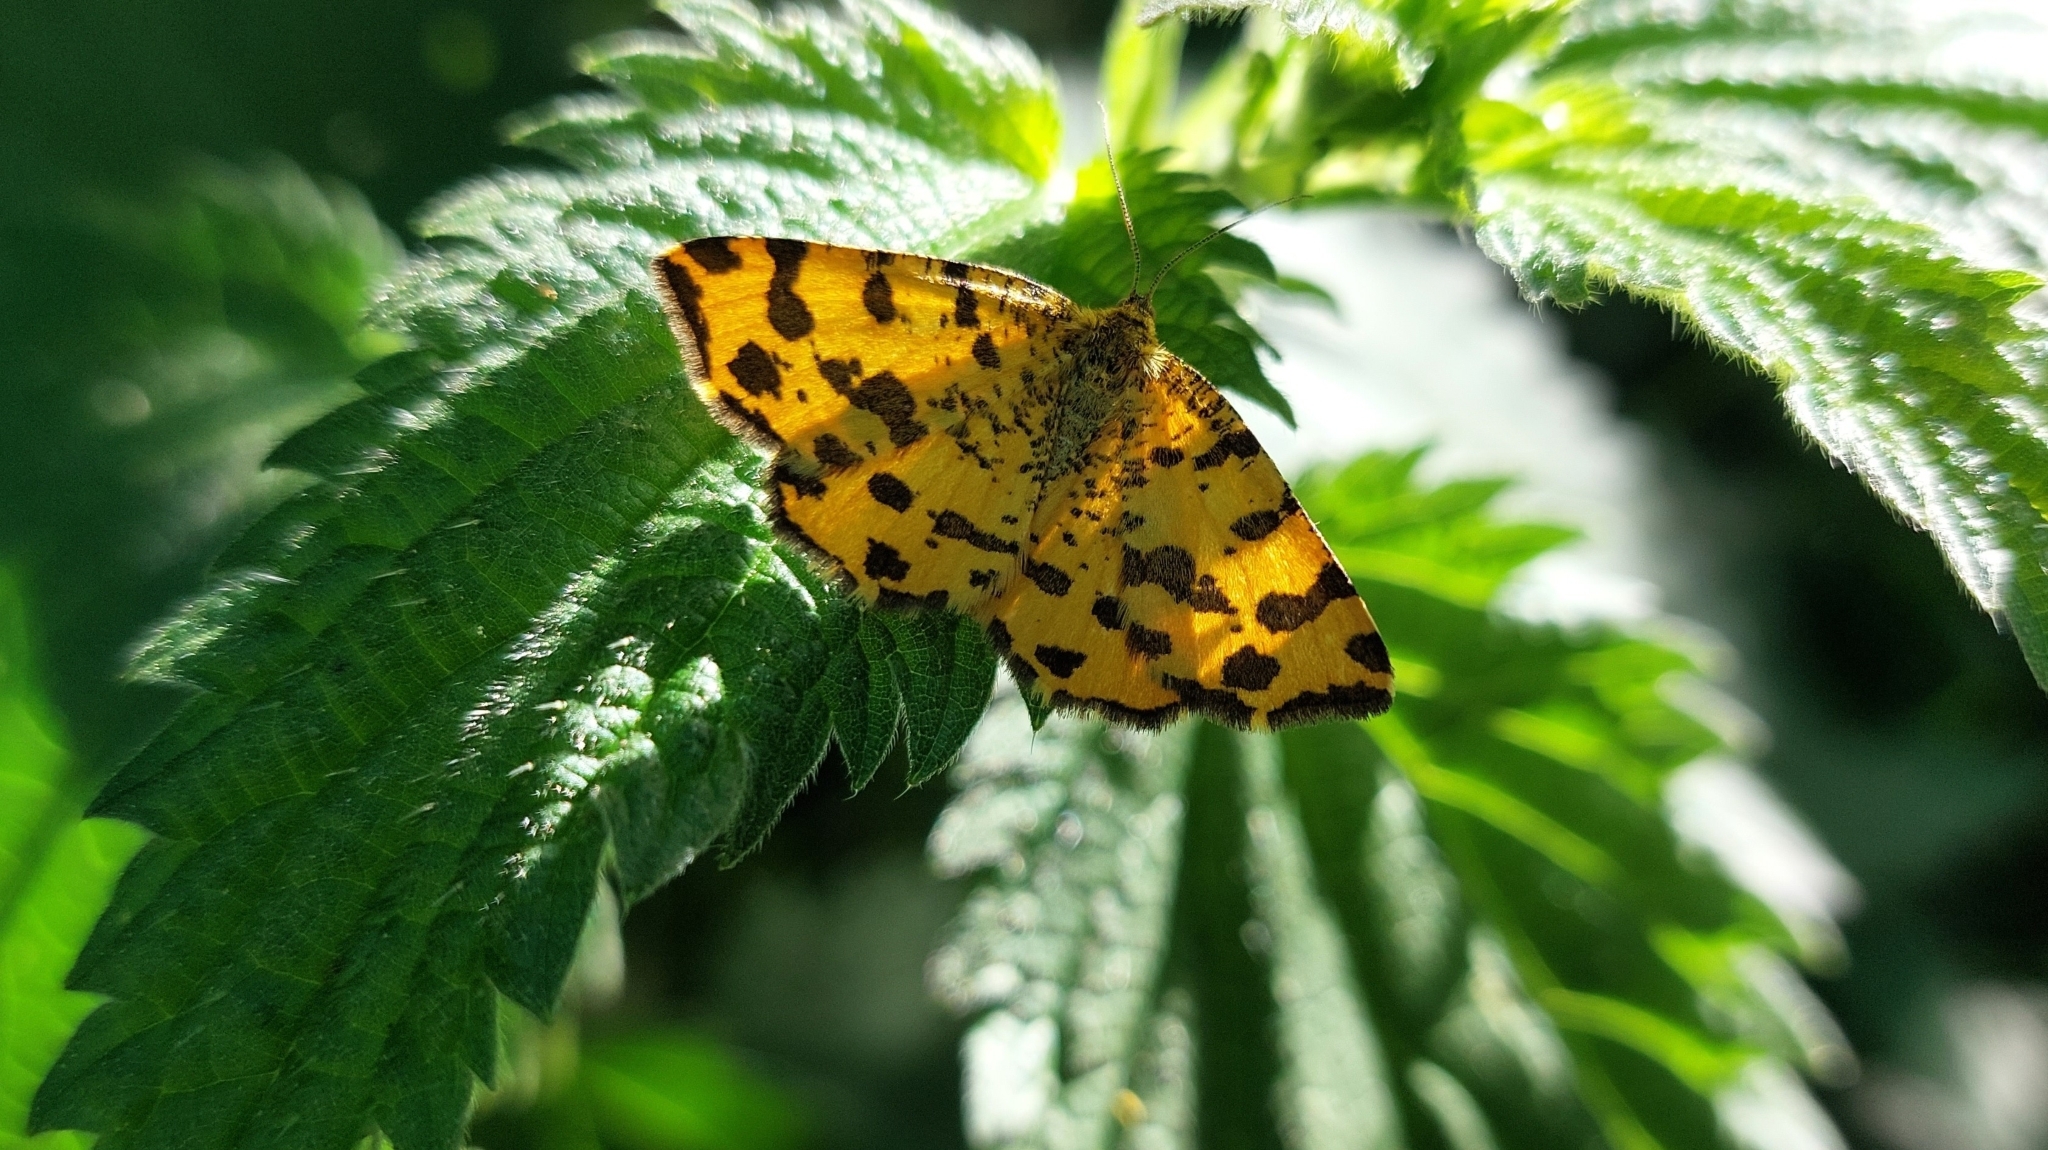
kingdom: Animalia
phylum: Arthropoda
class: Insecta
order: Lepidoptera
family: Geometridae
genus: Pseudopanthera
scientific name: Pseudopanthera macularia
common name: Speckled yellow
